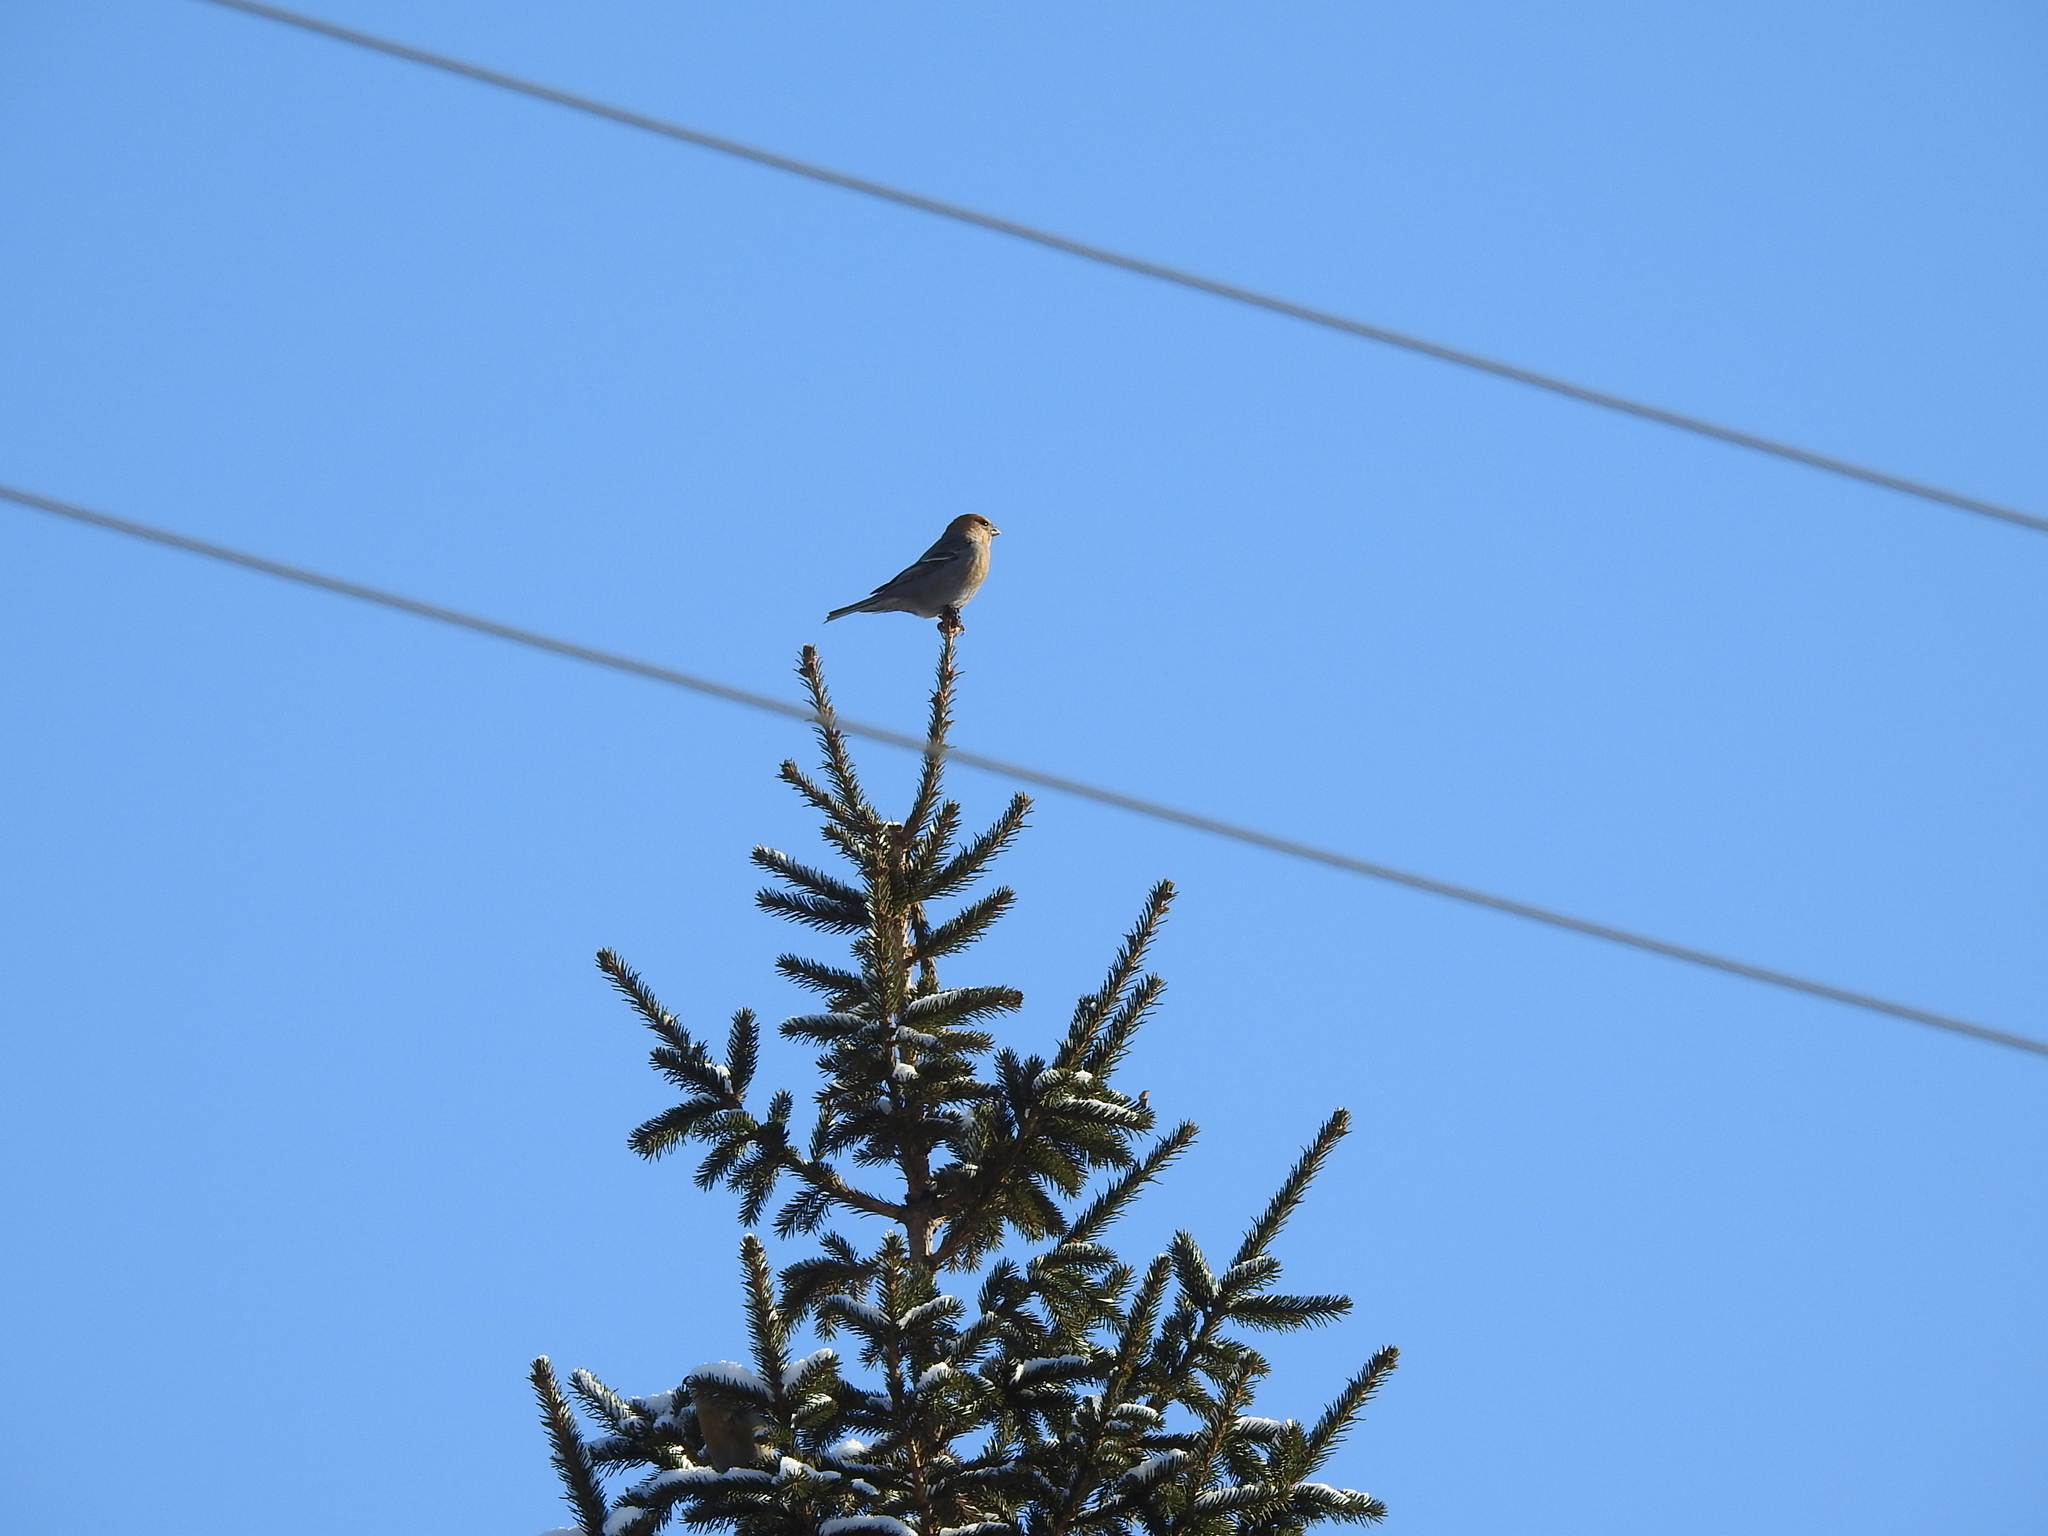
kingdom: Animalia
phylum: Chordata
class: Aves
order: Passeriformes
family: Fringillidae
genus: Pinicola
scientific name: Pinicola enucleator
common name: Pine grosbeak
